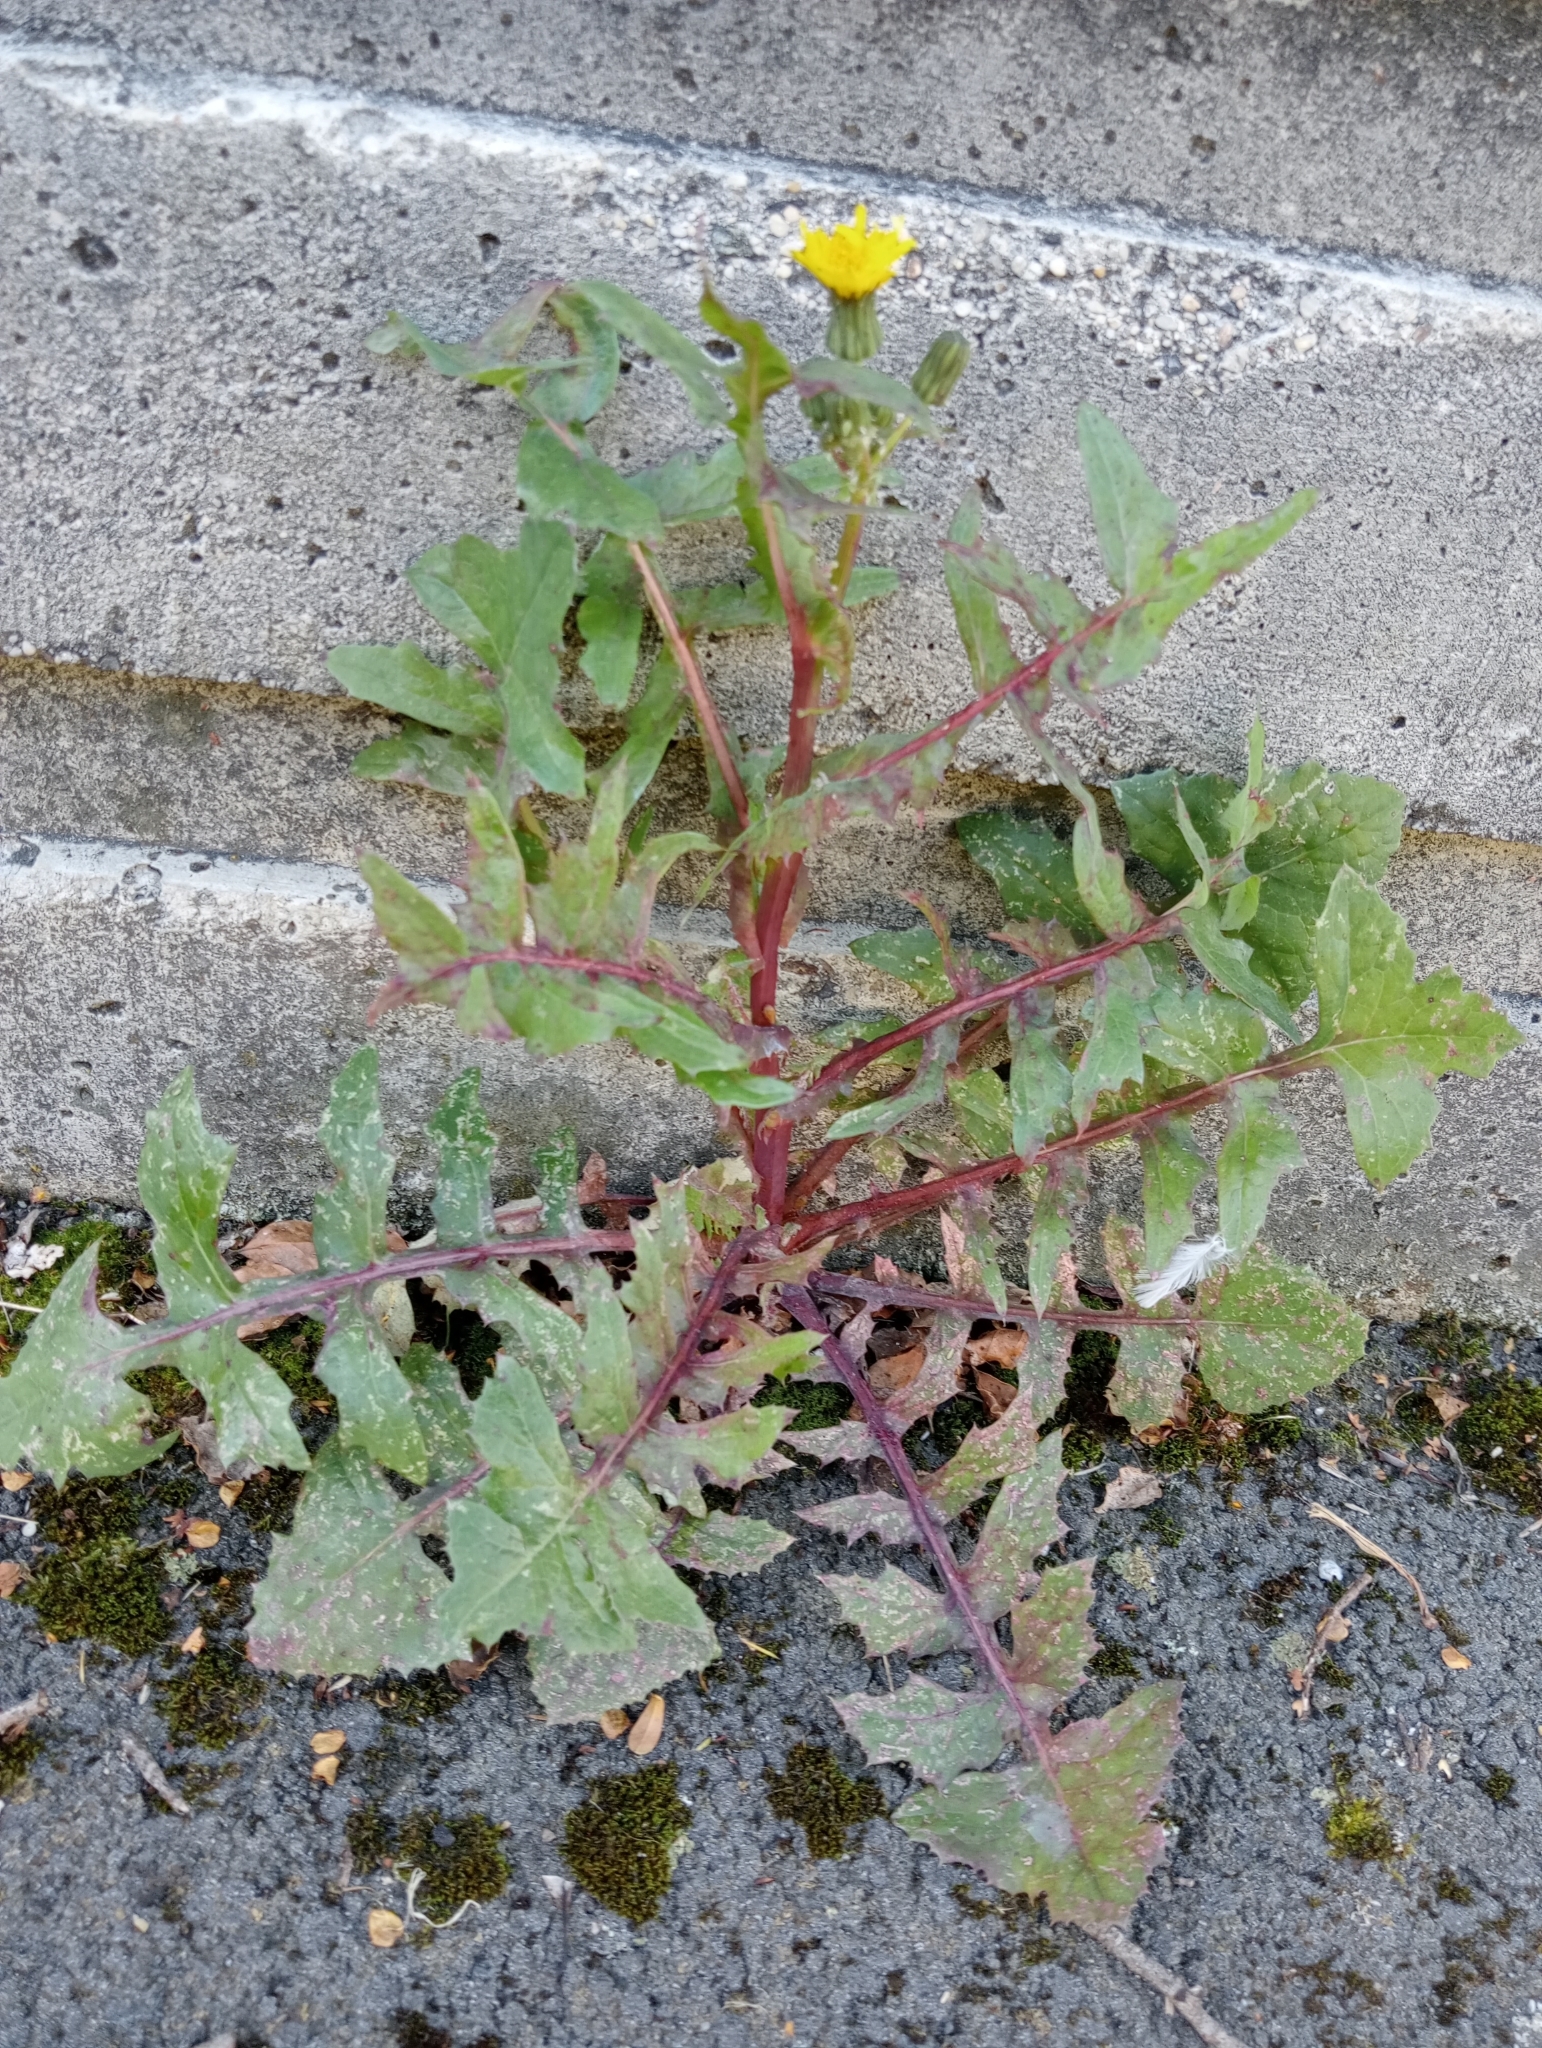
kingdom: Plantae
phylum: Tracheophyta
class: Magnoliopsida
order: Asterales
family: Asteraceae
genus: Sonchus
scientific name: Sonchus oleraceus
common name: Common sowthistle
